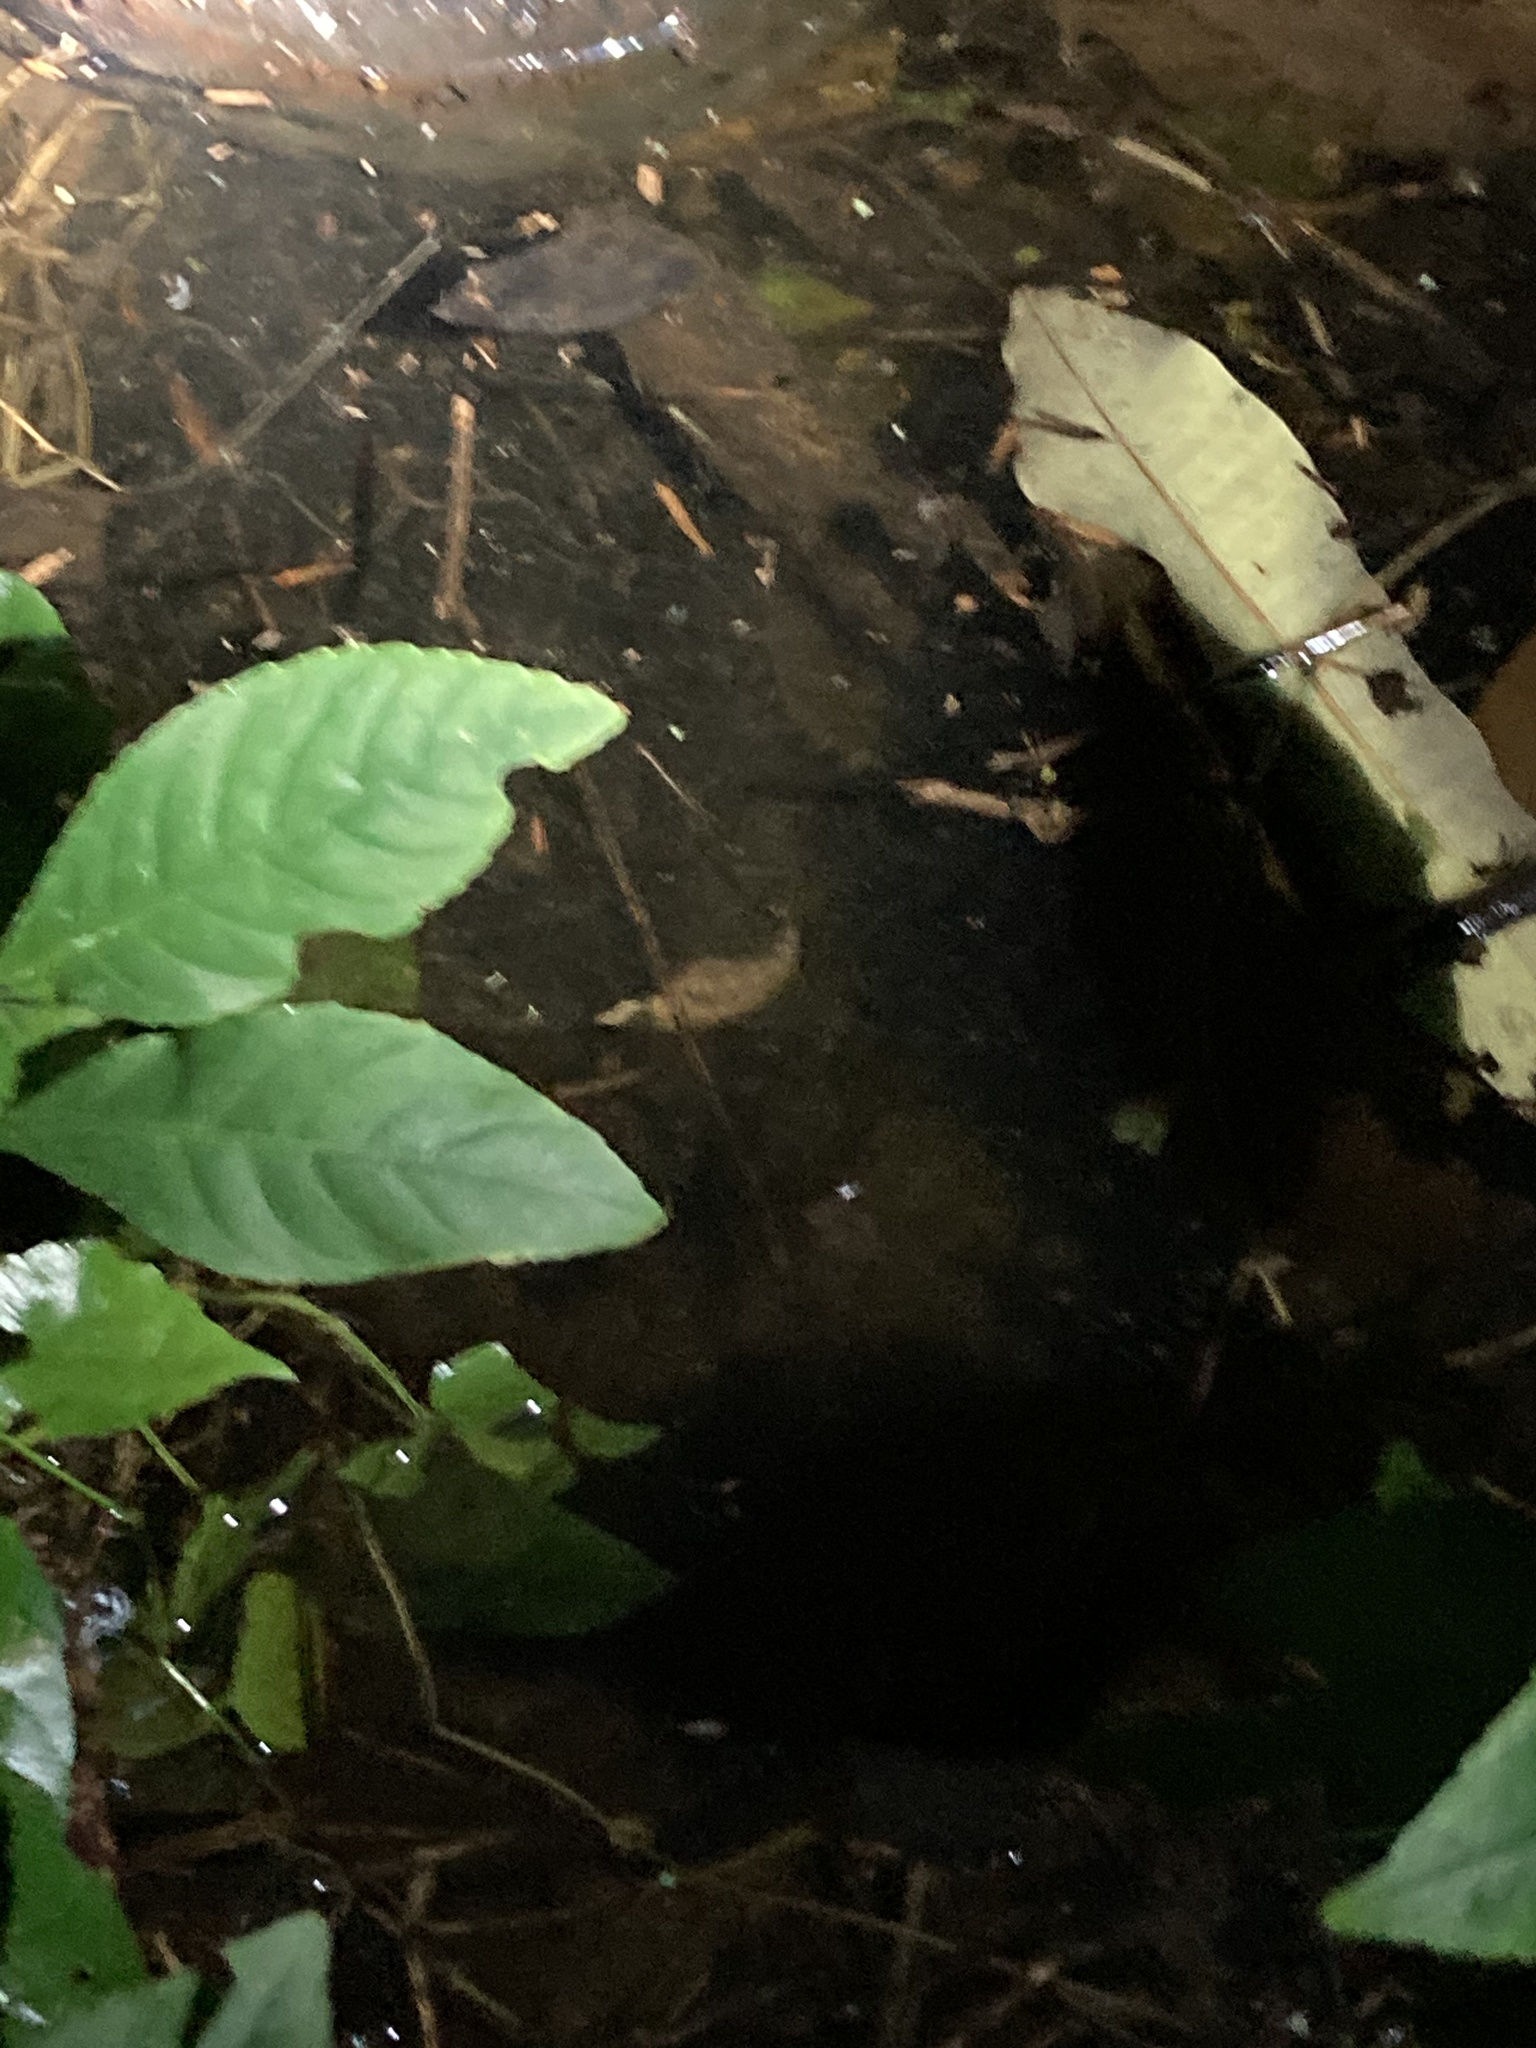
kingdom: Animalia
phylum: Chordata
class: Testudines
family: Geoemydidae
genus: Melanochelys
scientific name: Melanochelys trijuga
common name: Indian black turtle
